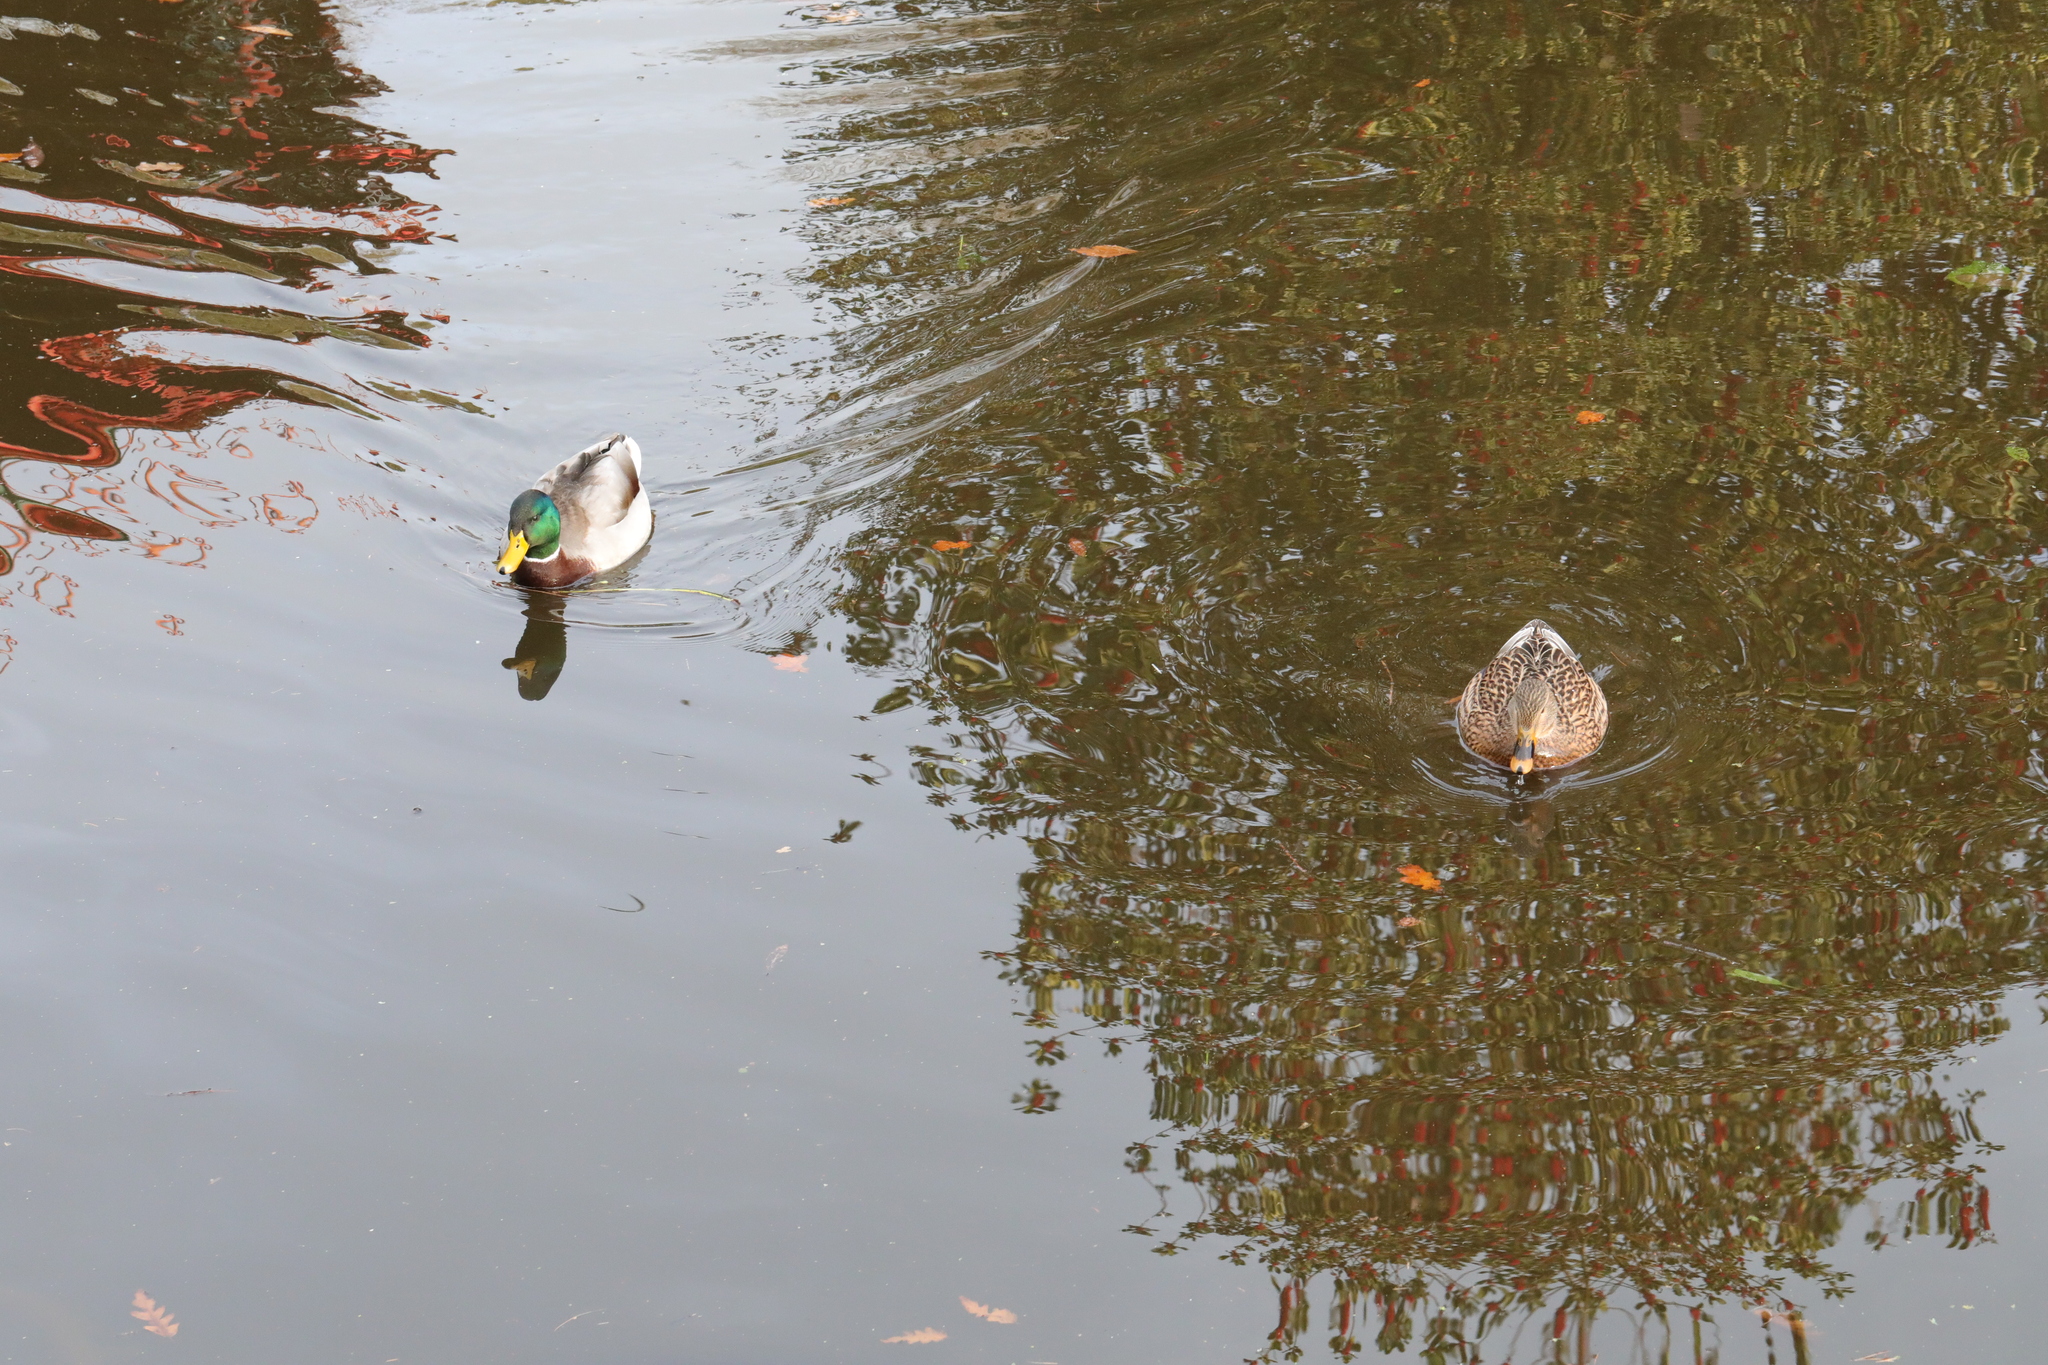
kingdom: Animalia
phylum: Chordata
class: Aves
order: Anseriformes
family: Anatidae
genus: Anas
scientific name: Anas platyrhynchos
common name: Mallard
